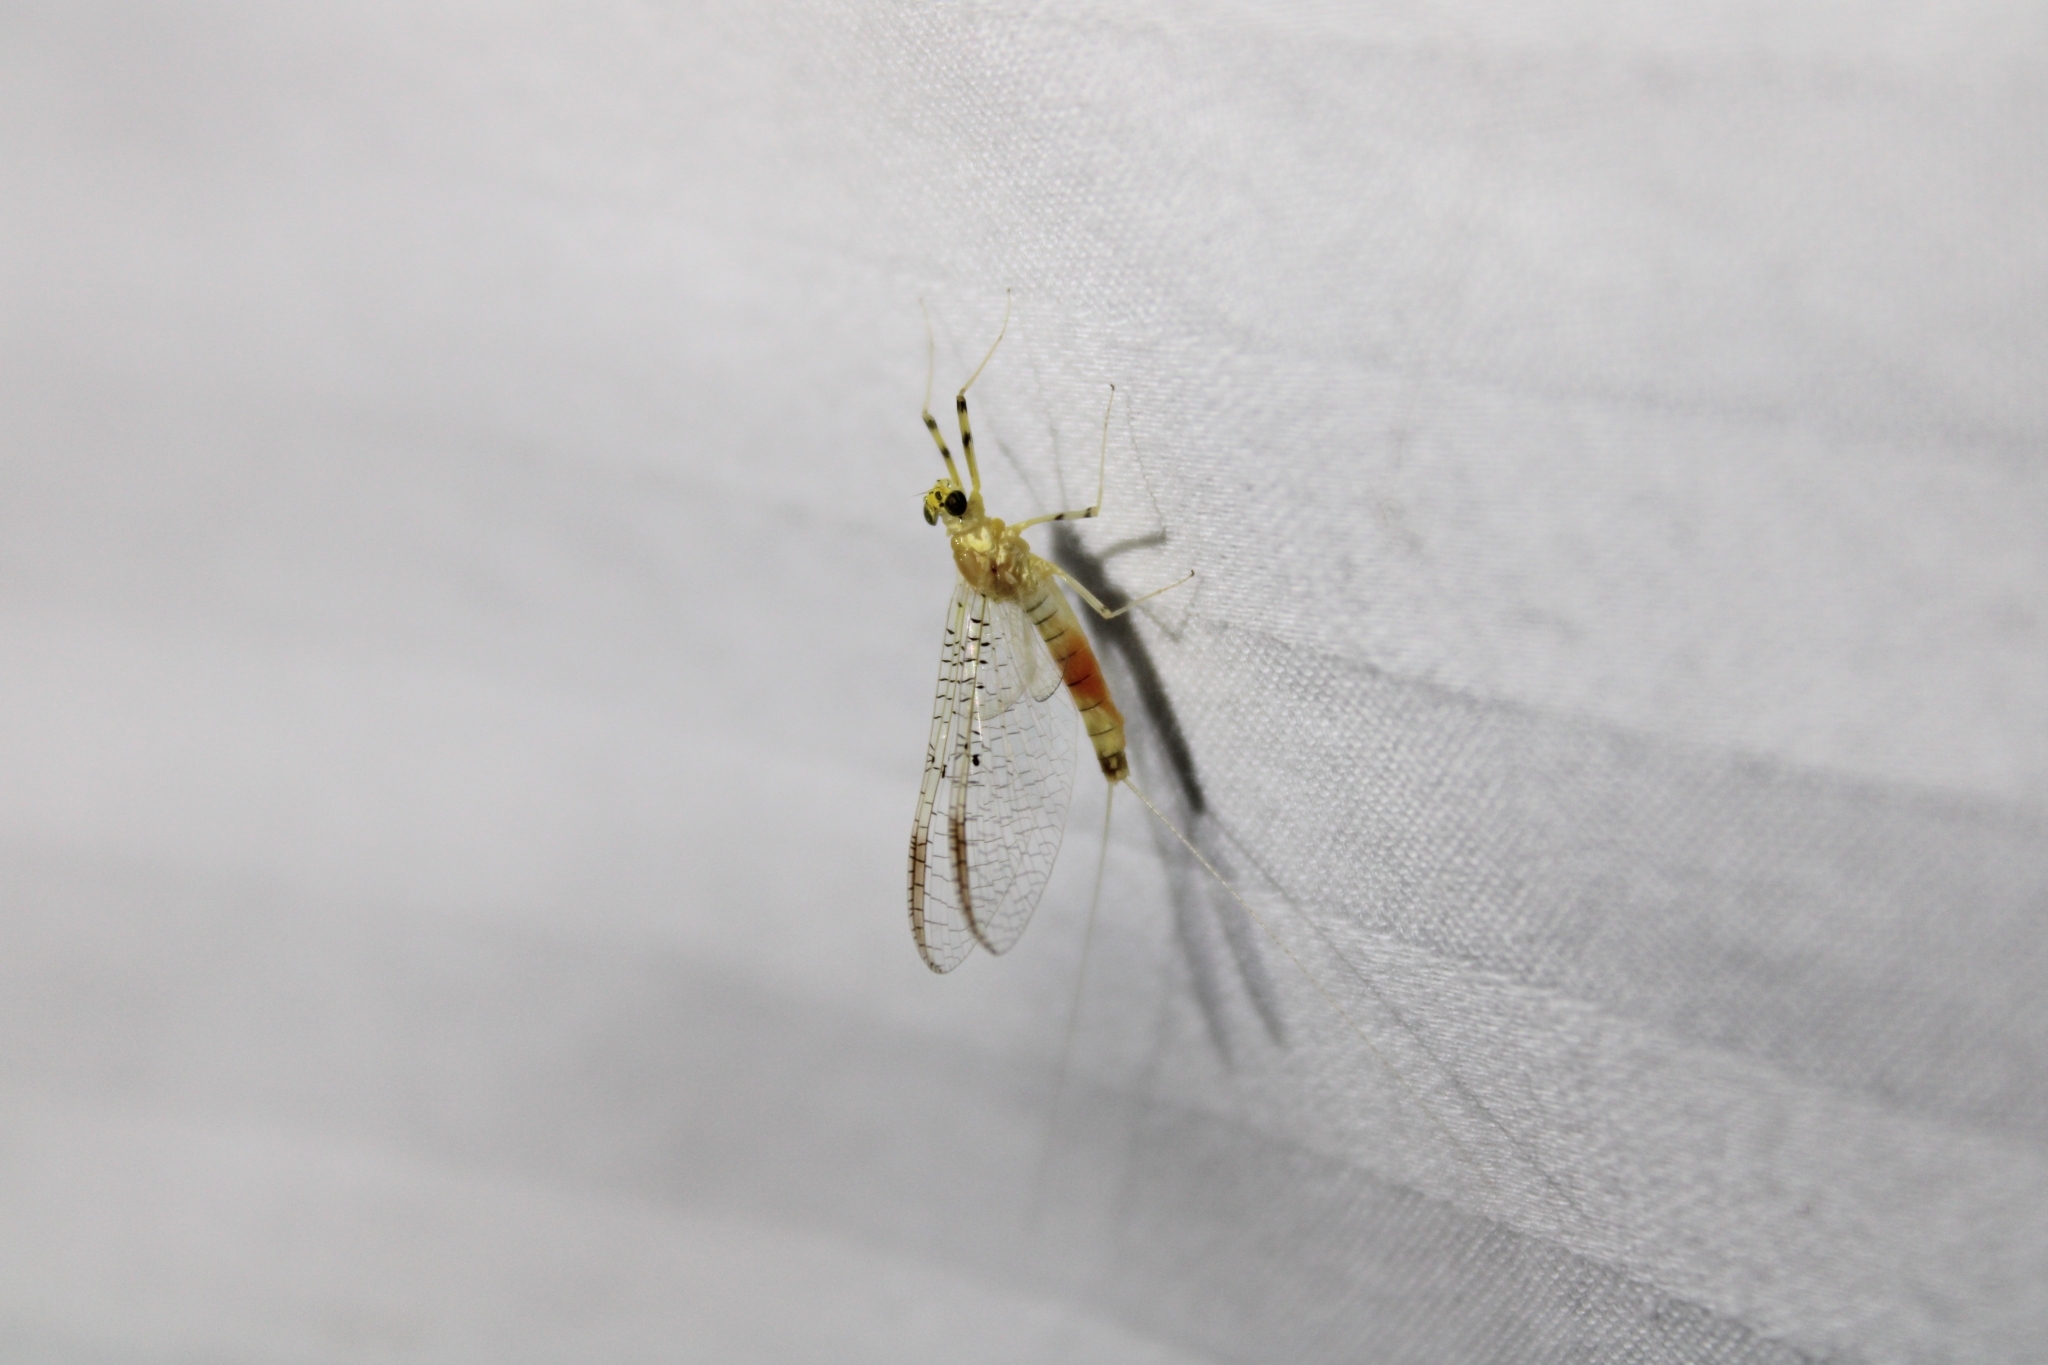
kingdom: Animalia
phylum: Arthropoda
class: Insecta
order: Ephemeroptera
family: Heptageniidae
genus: Stenacron
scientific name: Stenacron interpunctatum
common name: Orange cahill
